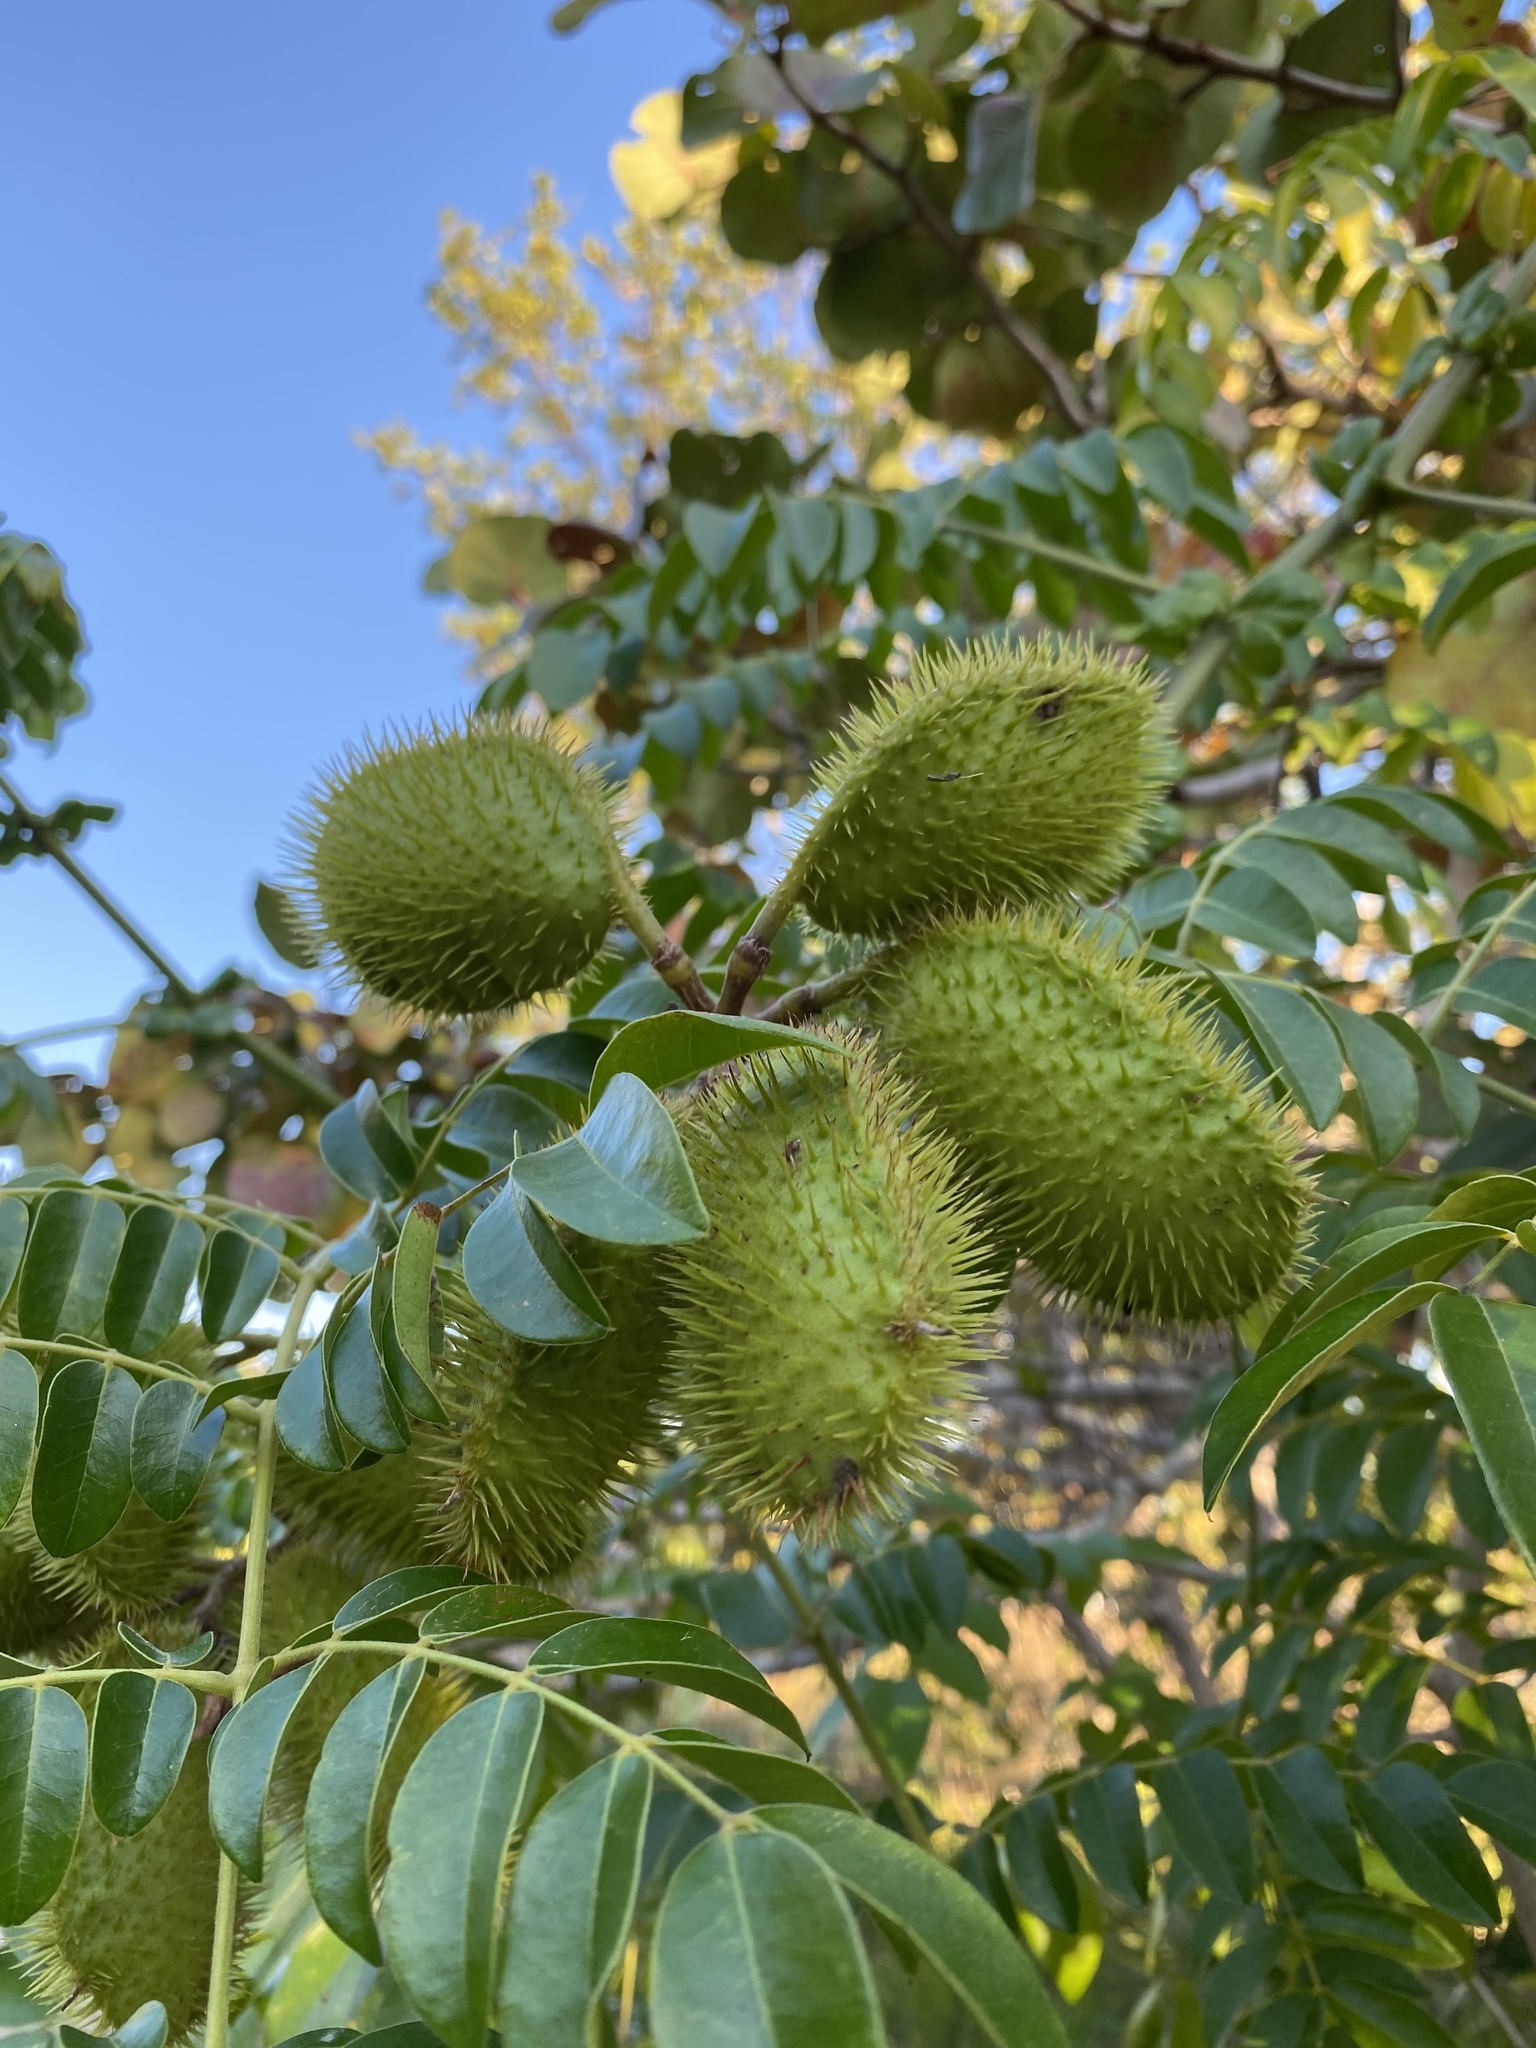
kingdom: Plantae
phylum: Tracheophyta
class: Magnoliopsida
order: Fabales
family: Fabaceae
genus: Guilandina
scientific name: Guilandina bonduc
